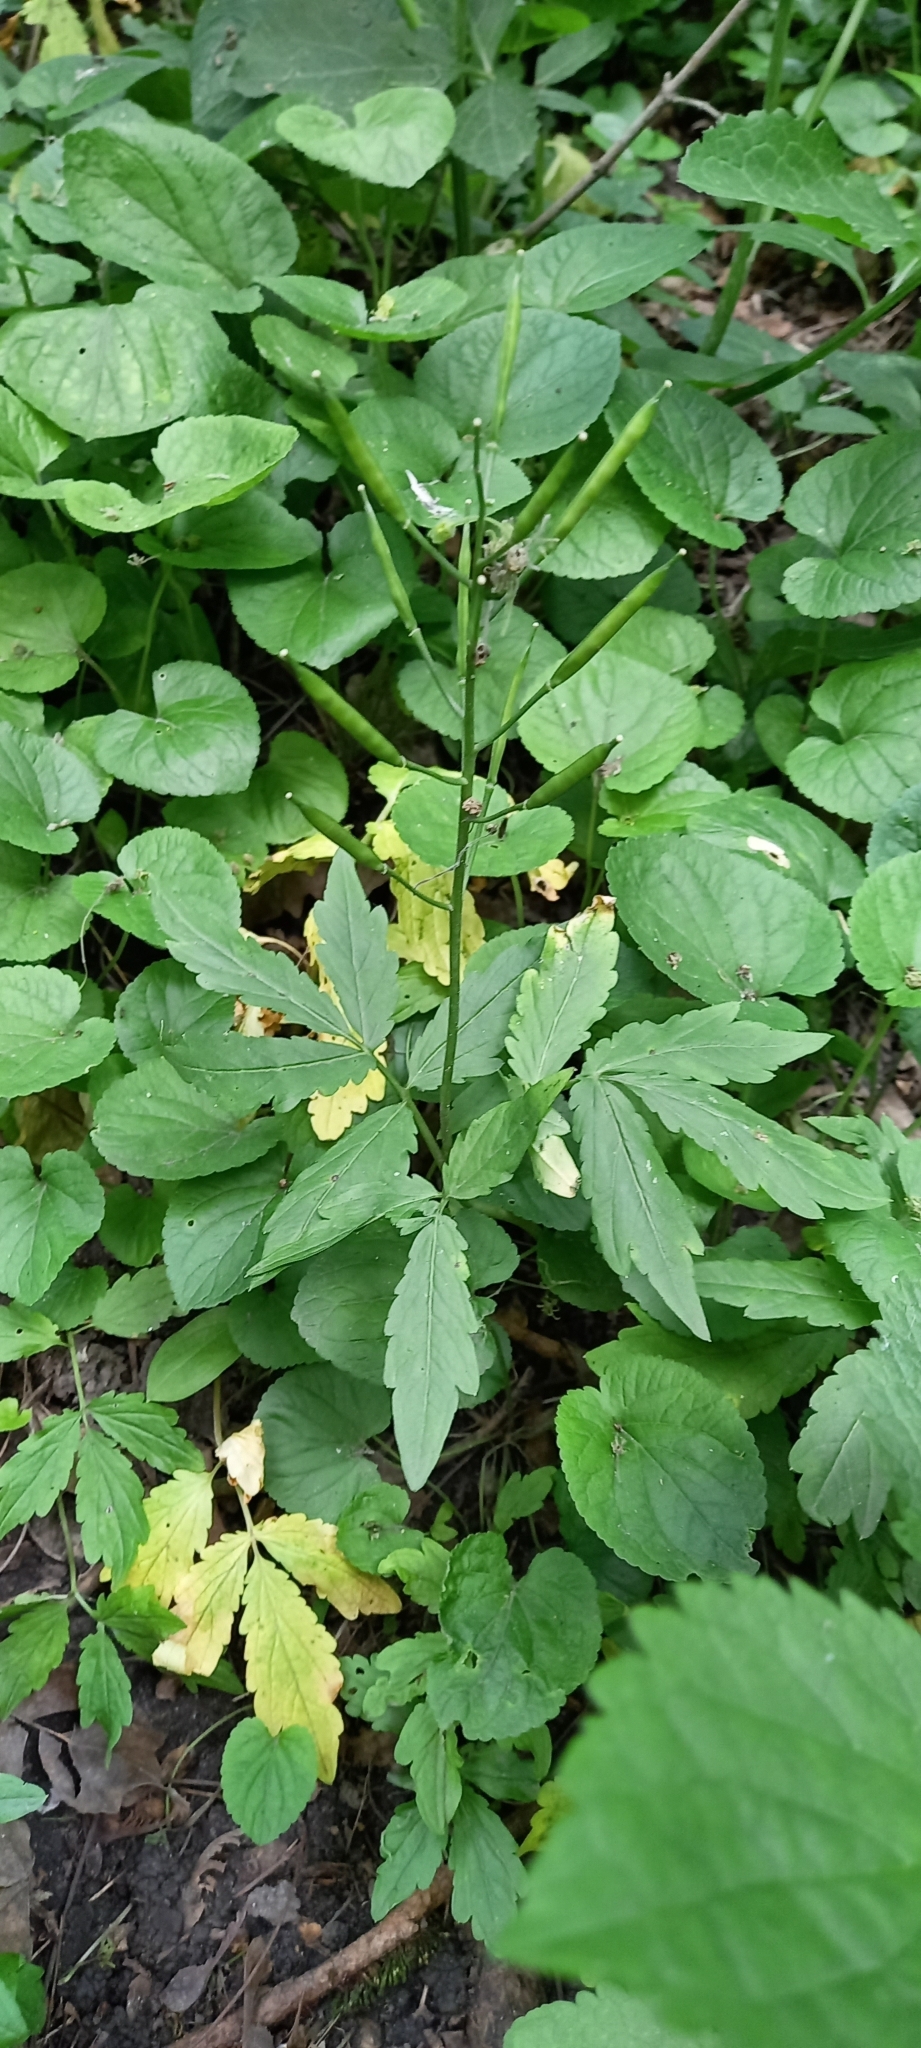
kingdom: Plantae
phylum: Tracheophyta
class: Magnoliopsida
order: Brassicales
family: Brassicaceae
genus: Cardamine
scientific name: Cardamine quinquefolia
